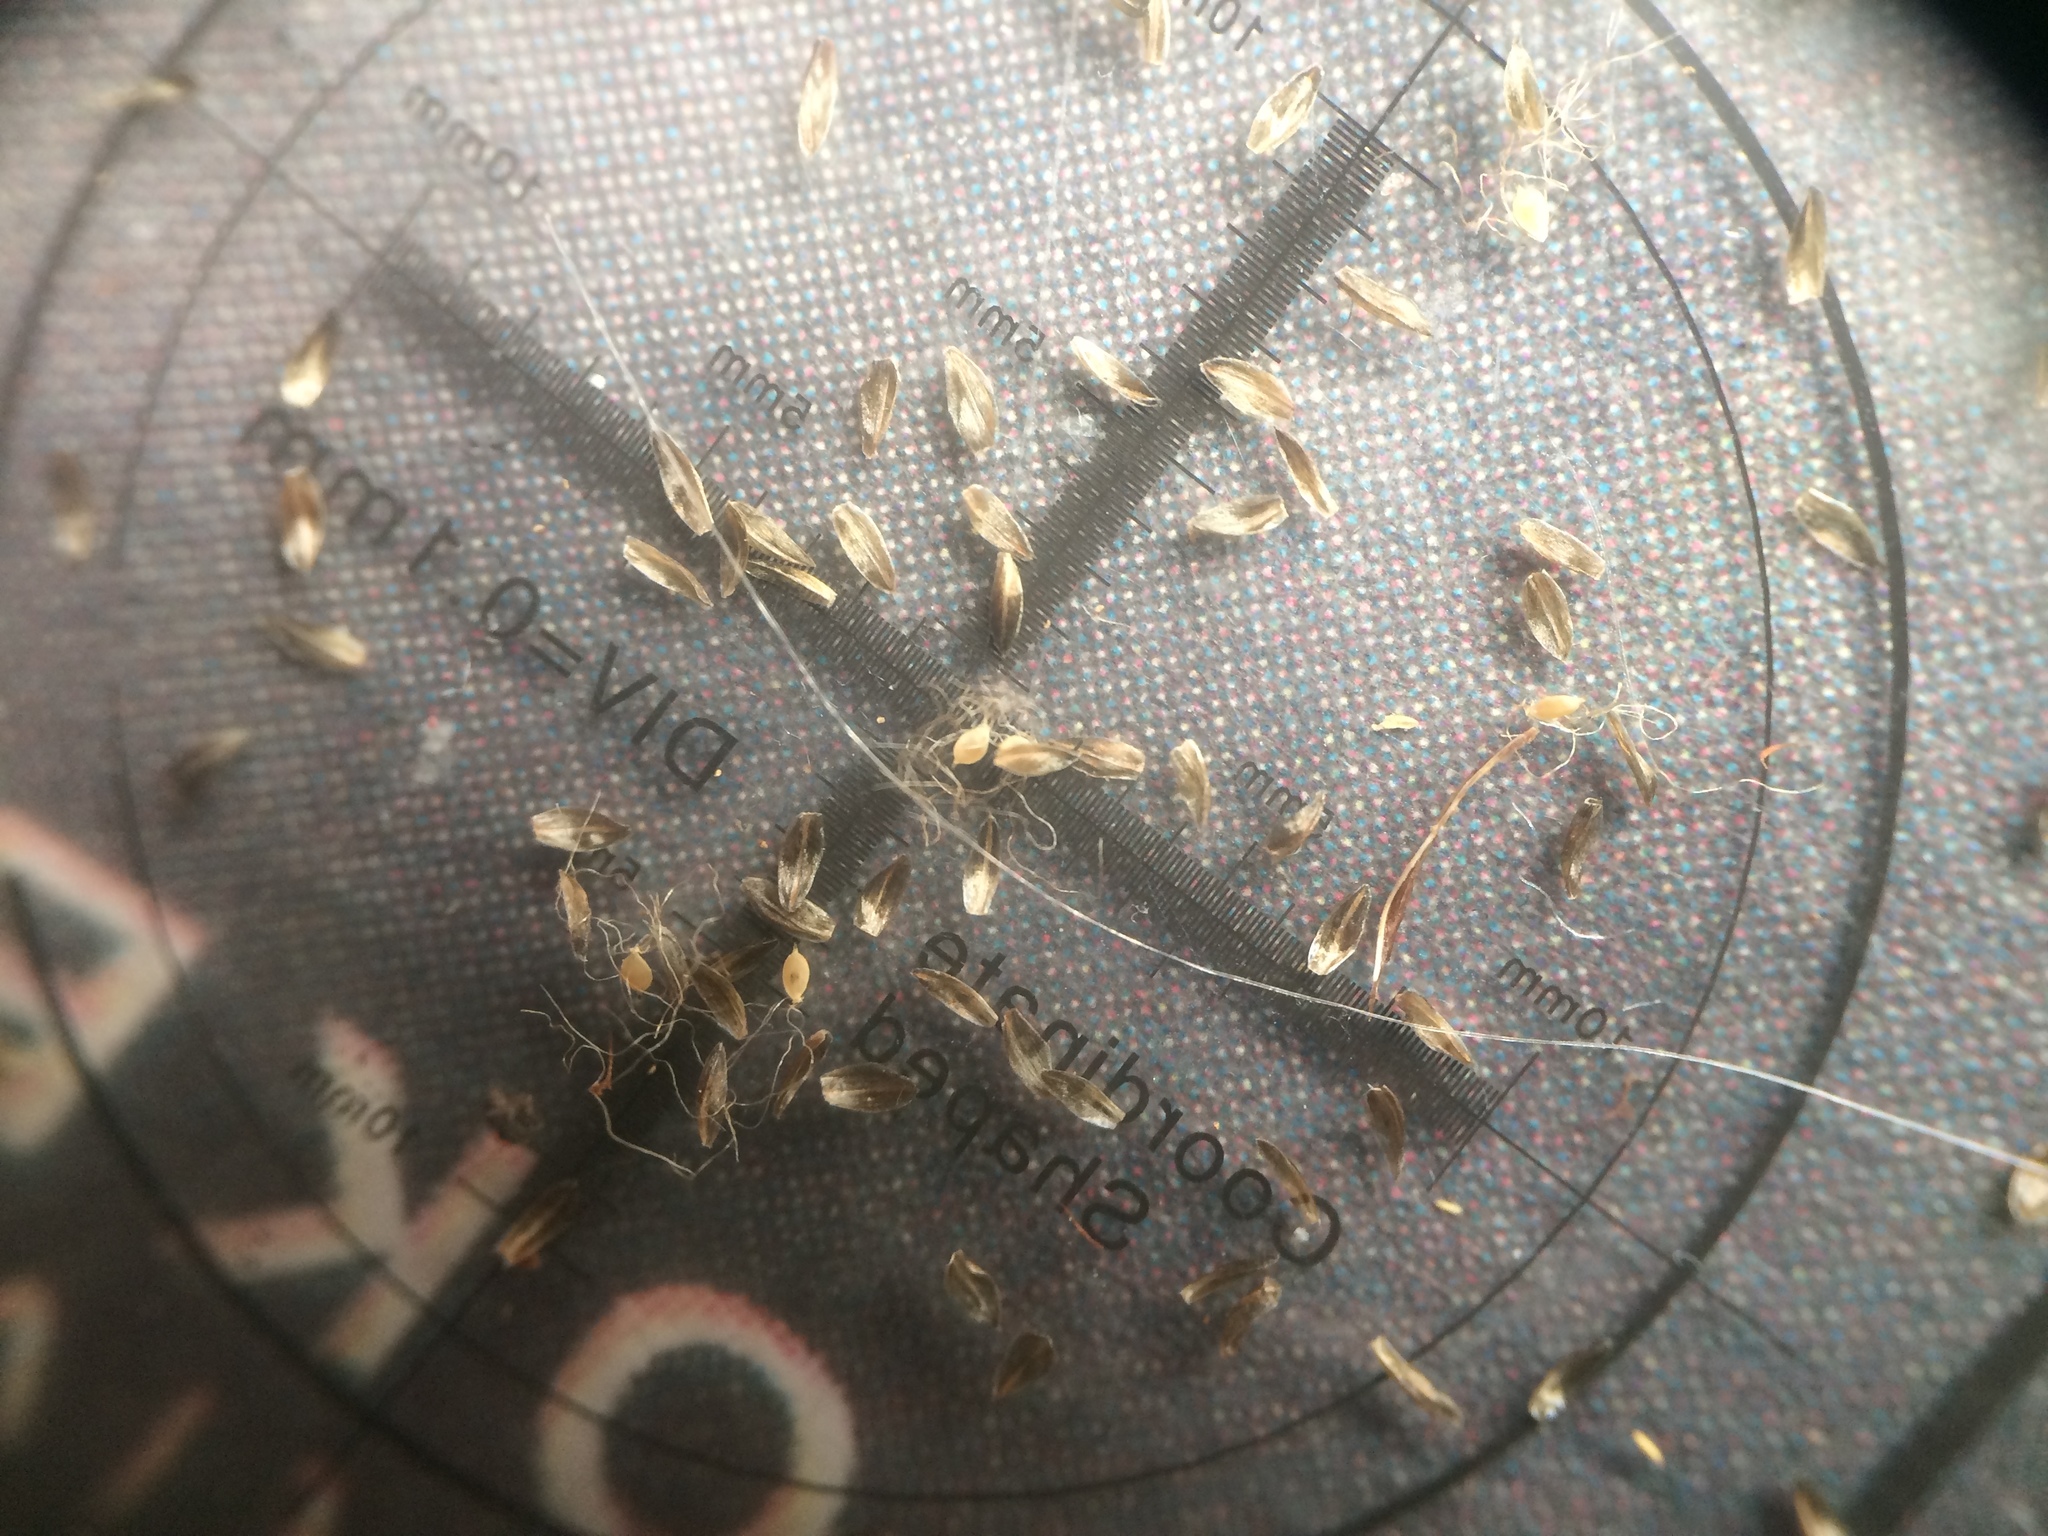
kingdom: Plantae
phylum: Tracheophyta
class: Liliopsida
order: Poales
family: Cyperaceae
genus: Scirpus
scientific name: Scirpus atrocinctus
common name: Black-girdled bulrush
